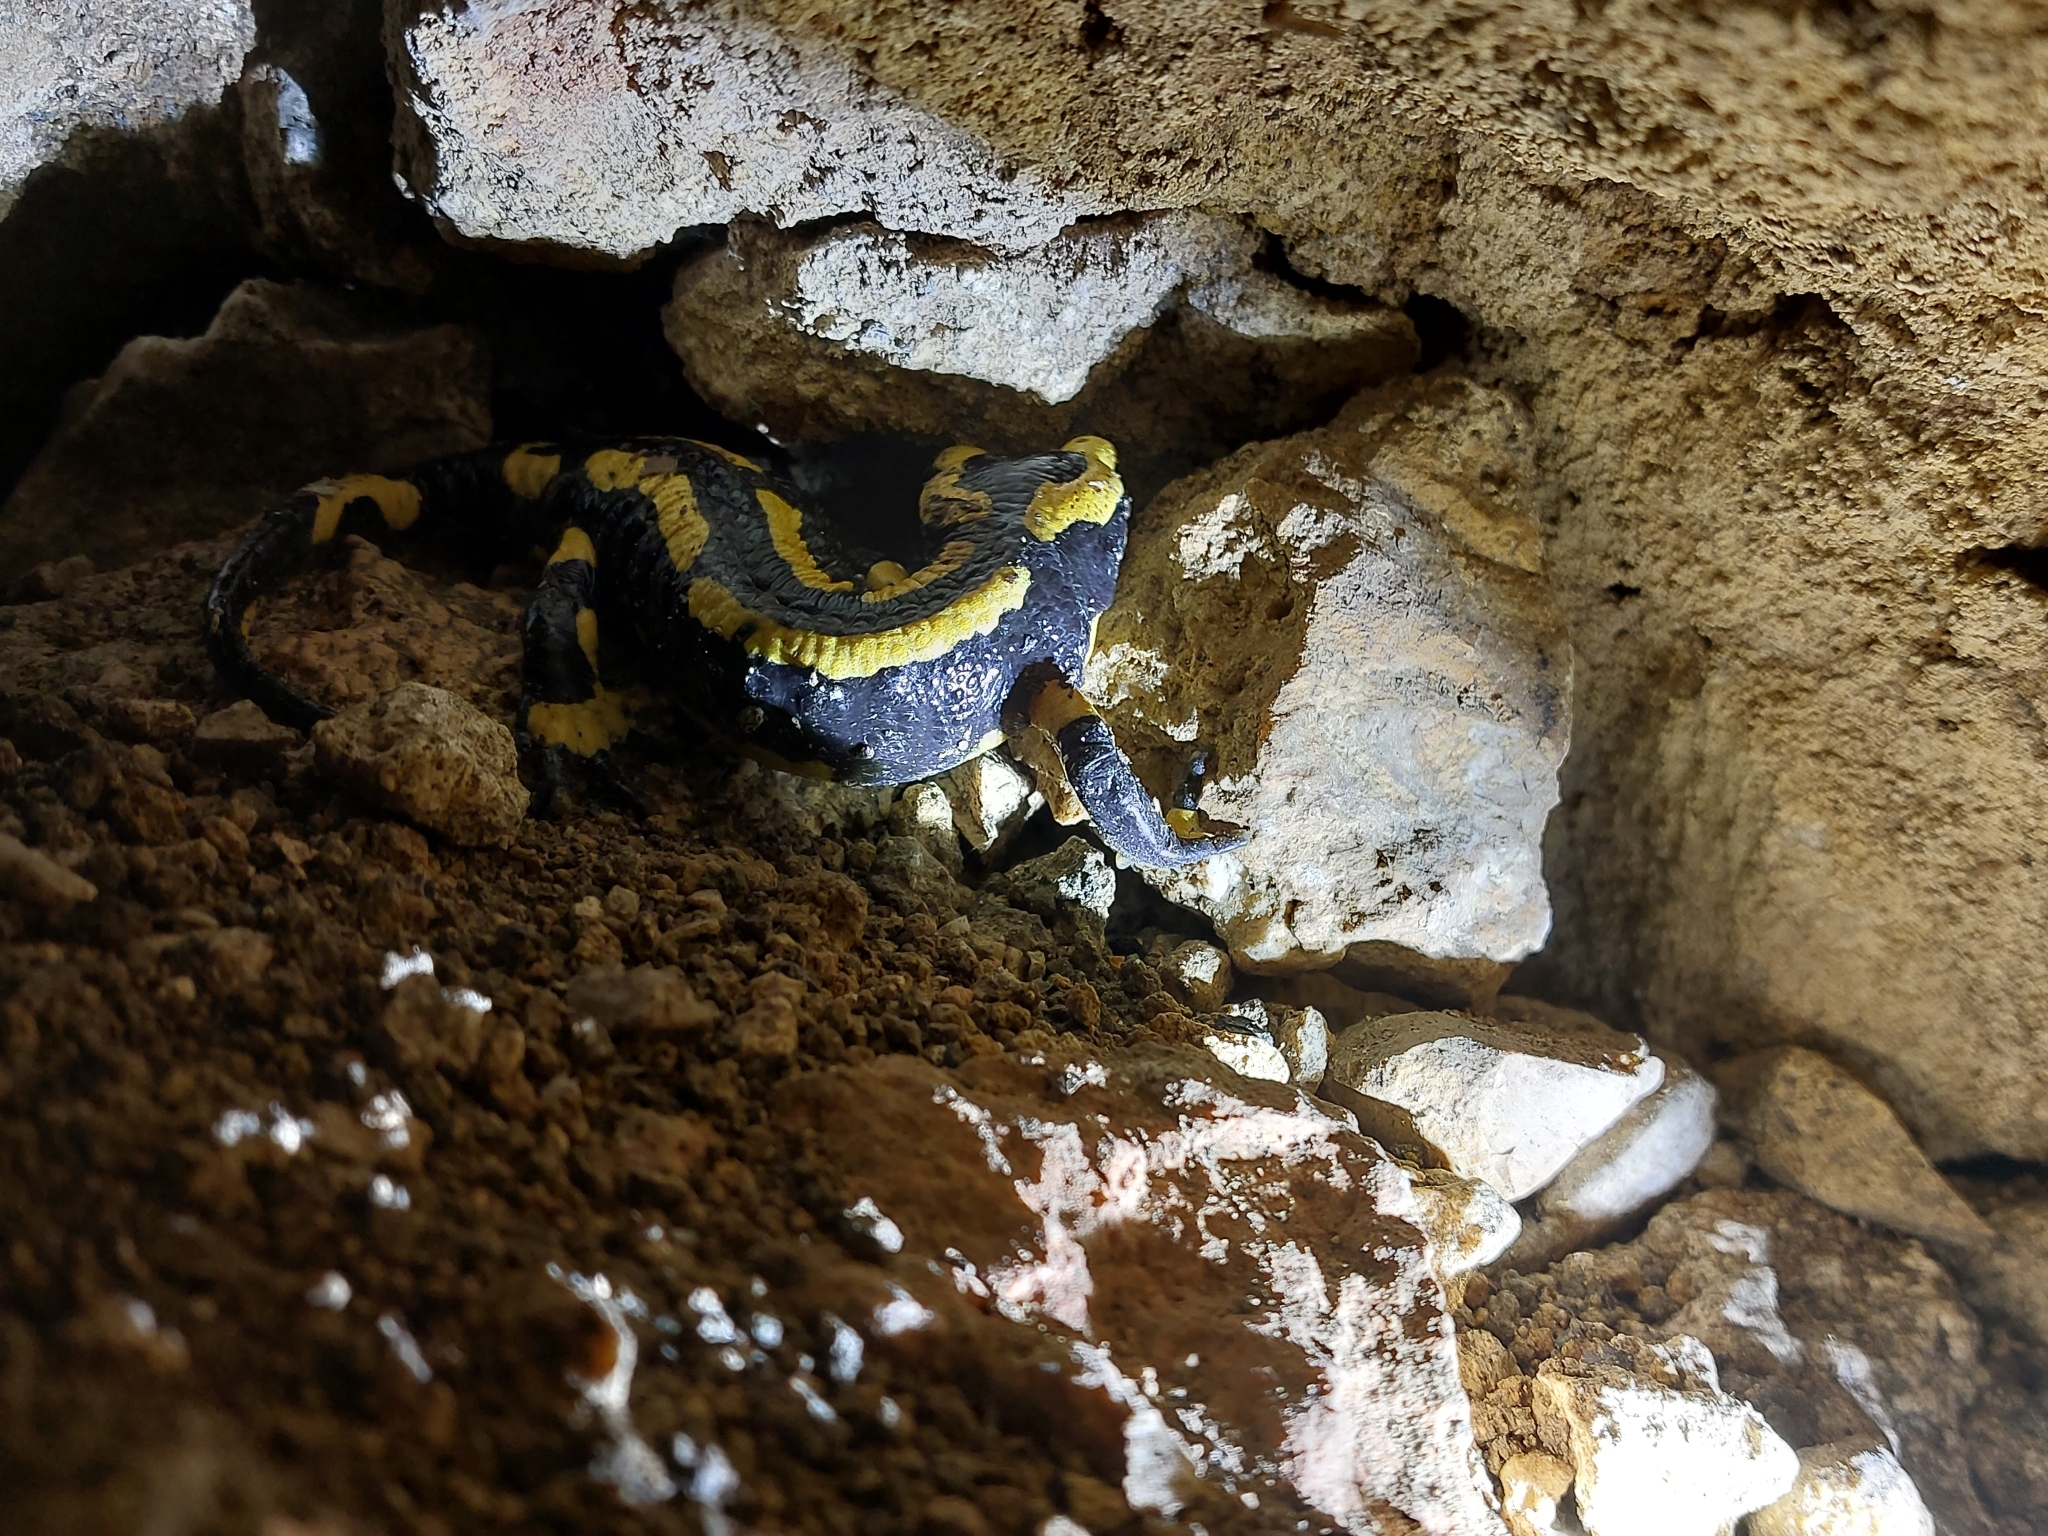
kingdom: Animalia
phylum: Chordata
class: Amphibia
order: Caudata
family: Salamandridae
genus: Salamandra
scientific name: Salamandra salamandra
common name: Fire salamander
